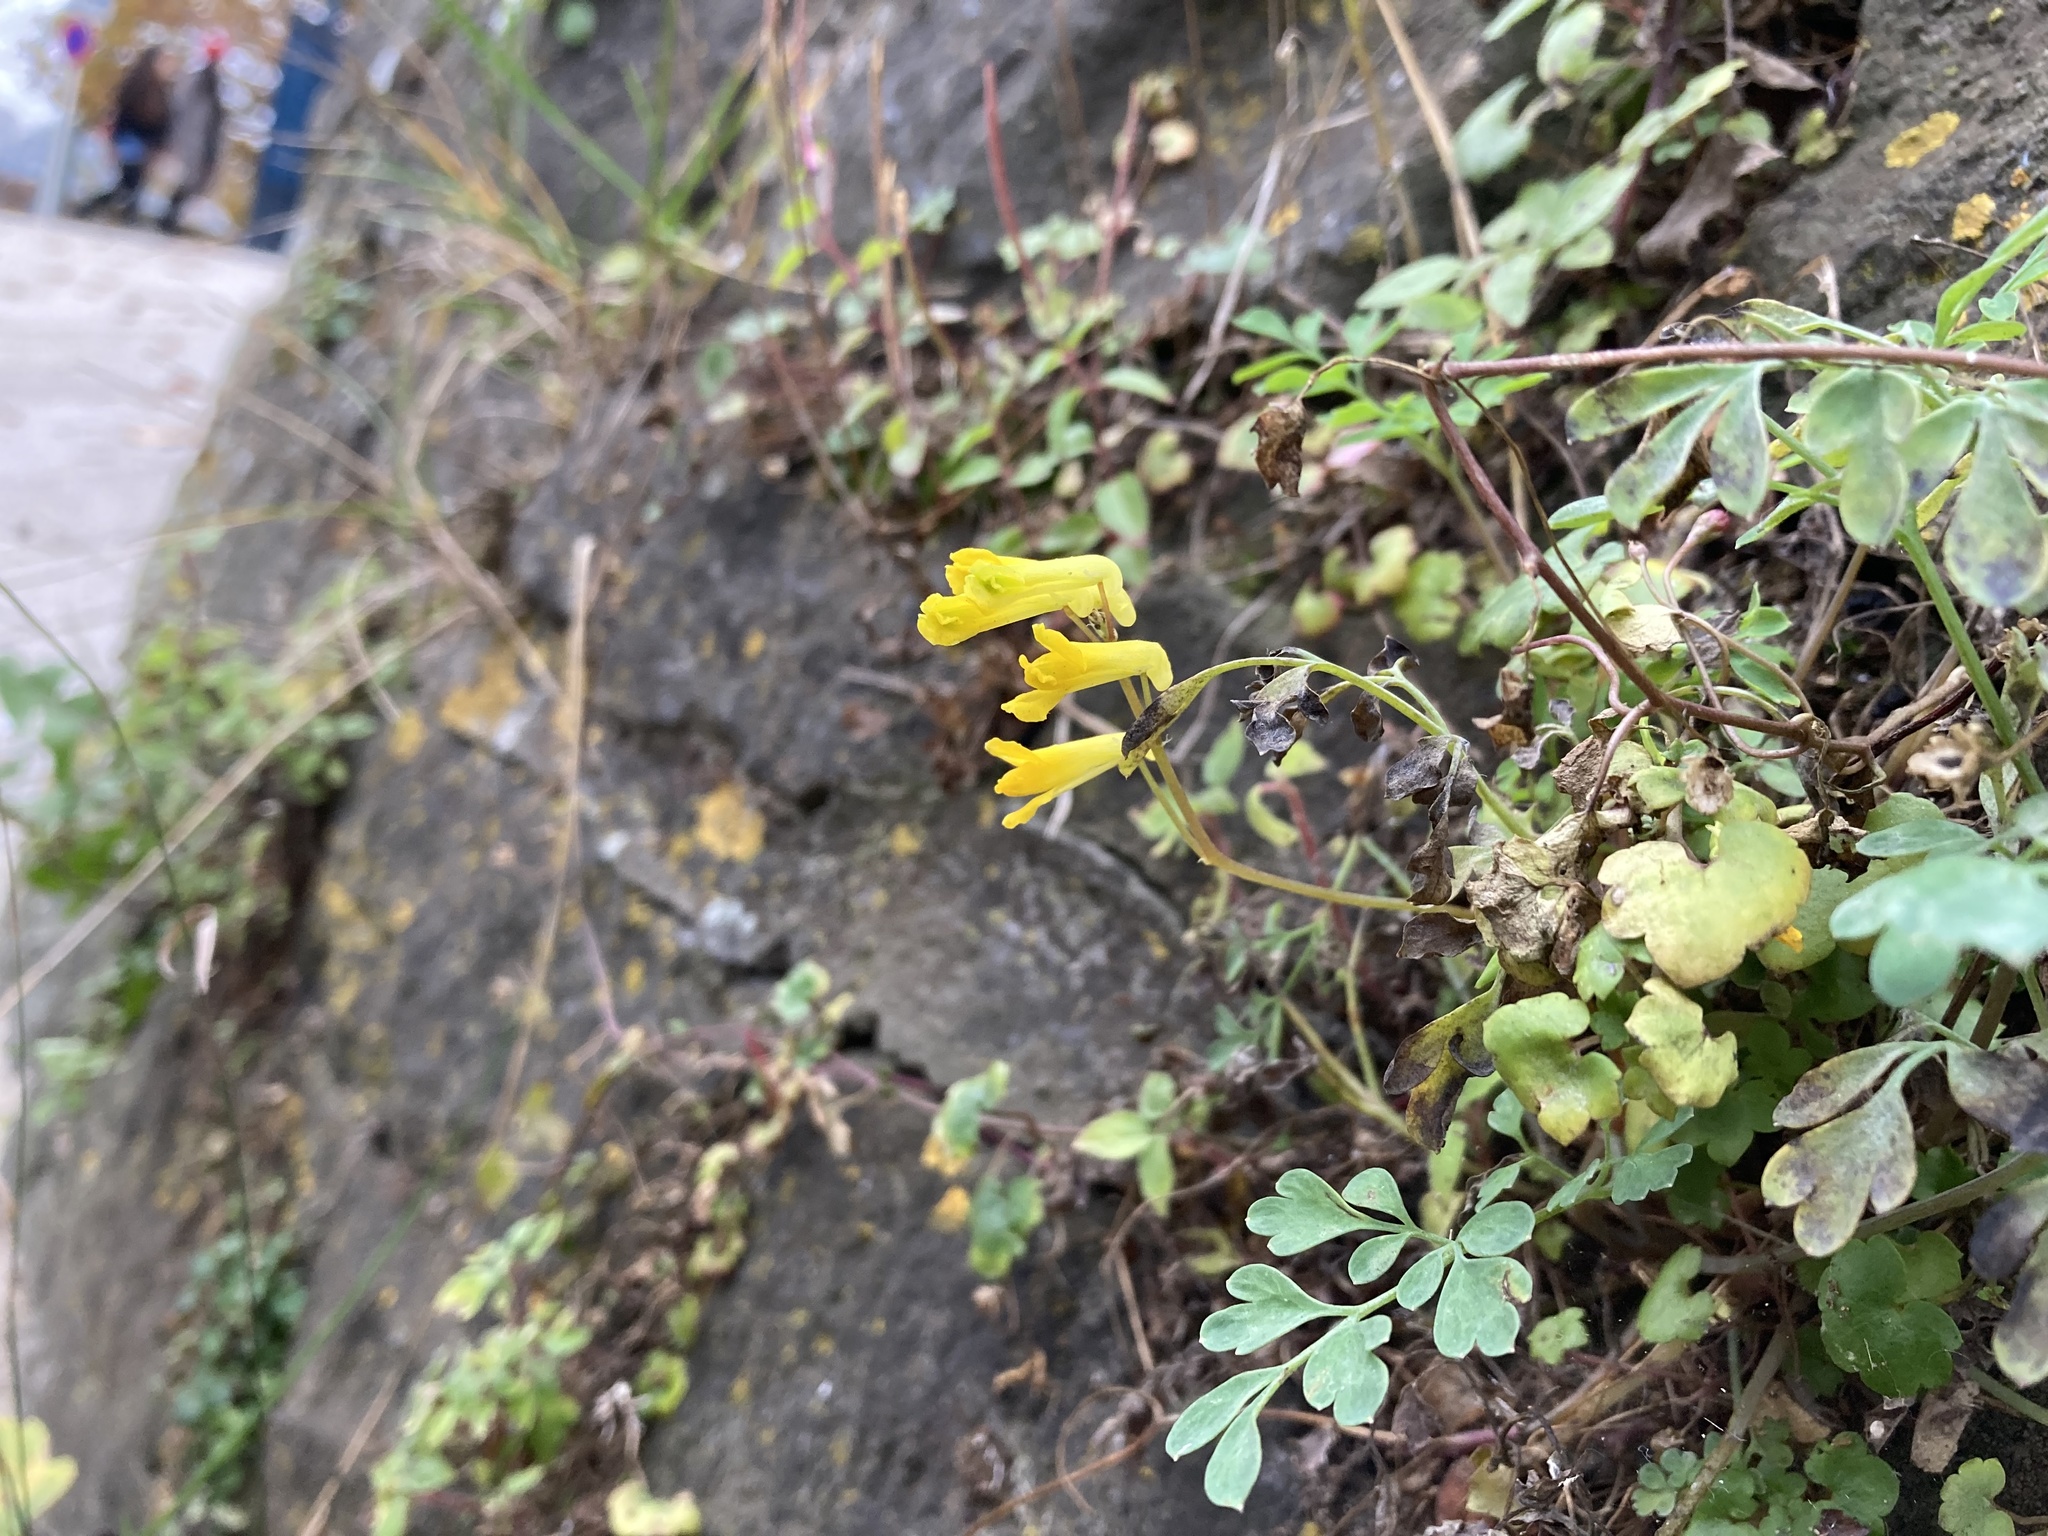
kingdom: Plantae
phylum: Tracheophyta
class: Magnoliopsida
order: Ranunculales
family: Papaveraceae
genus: Pseudofumaria
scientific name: Pseudofumaria lutea
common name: Yellow corydalis
